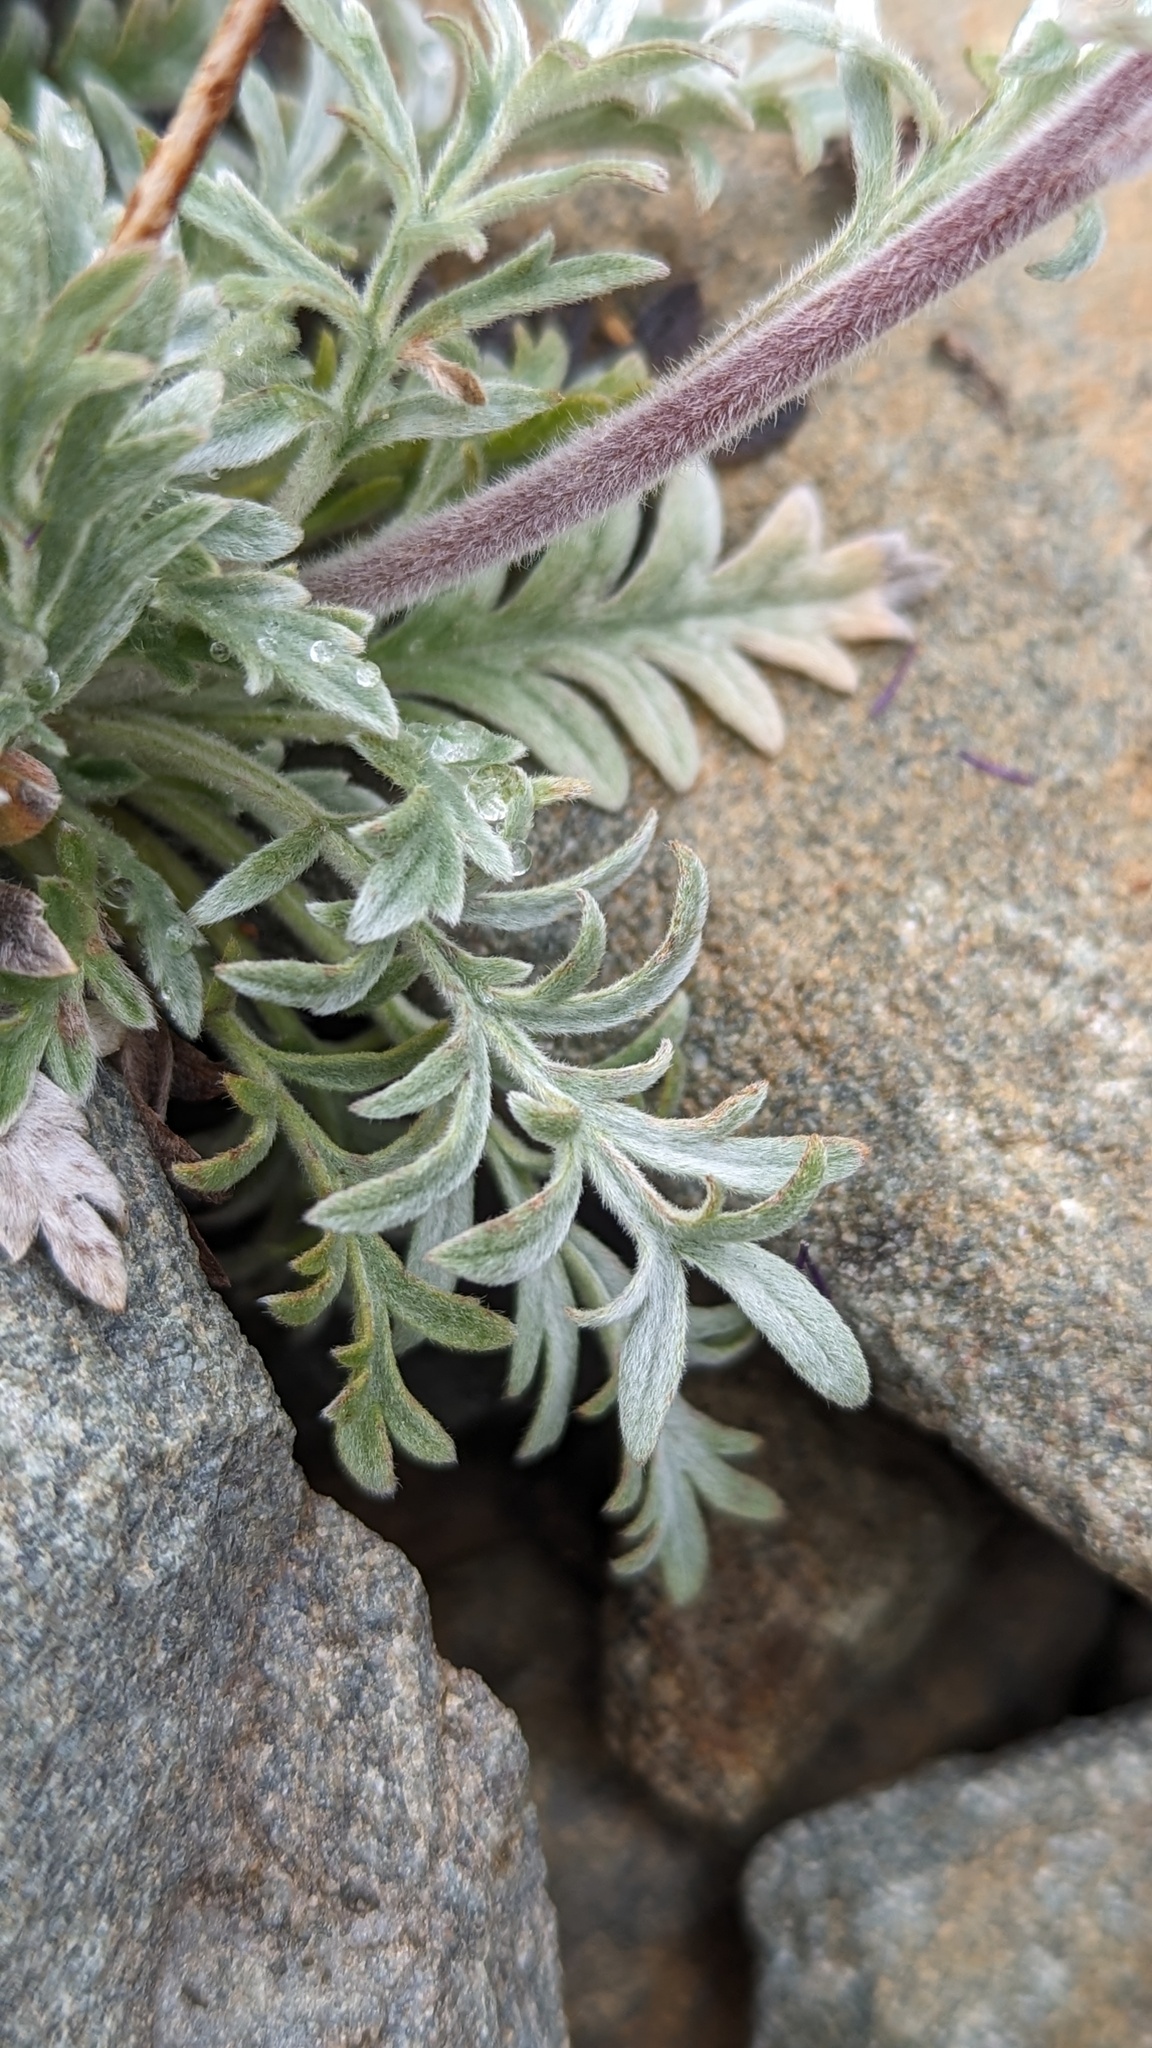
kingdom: Plantae
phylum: Tracheophyta
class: Magnoliopsida
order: Boraginales
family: Hydrophyllaceae
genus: Phacelia
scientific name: Phacelia sericea
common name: Silky phacelia
